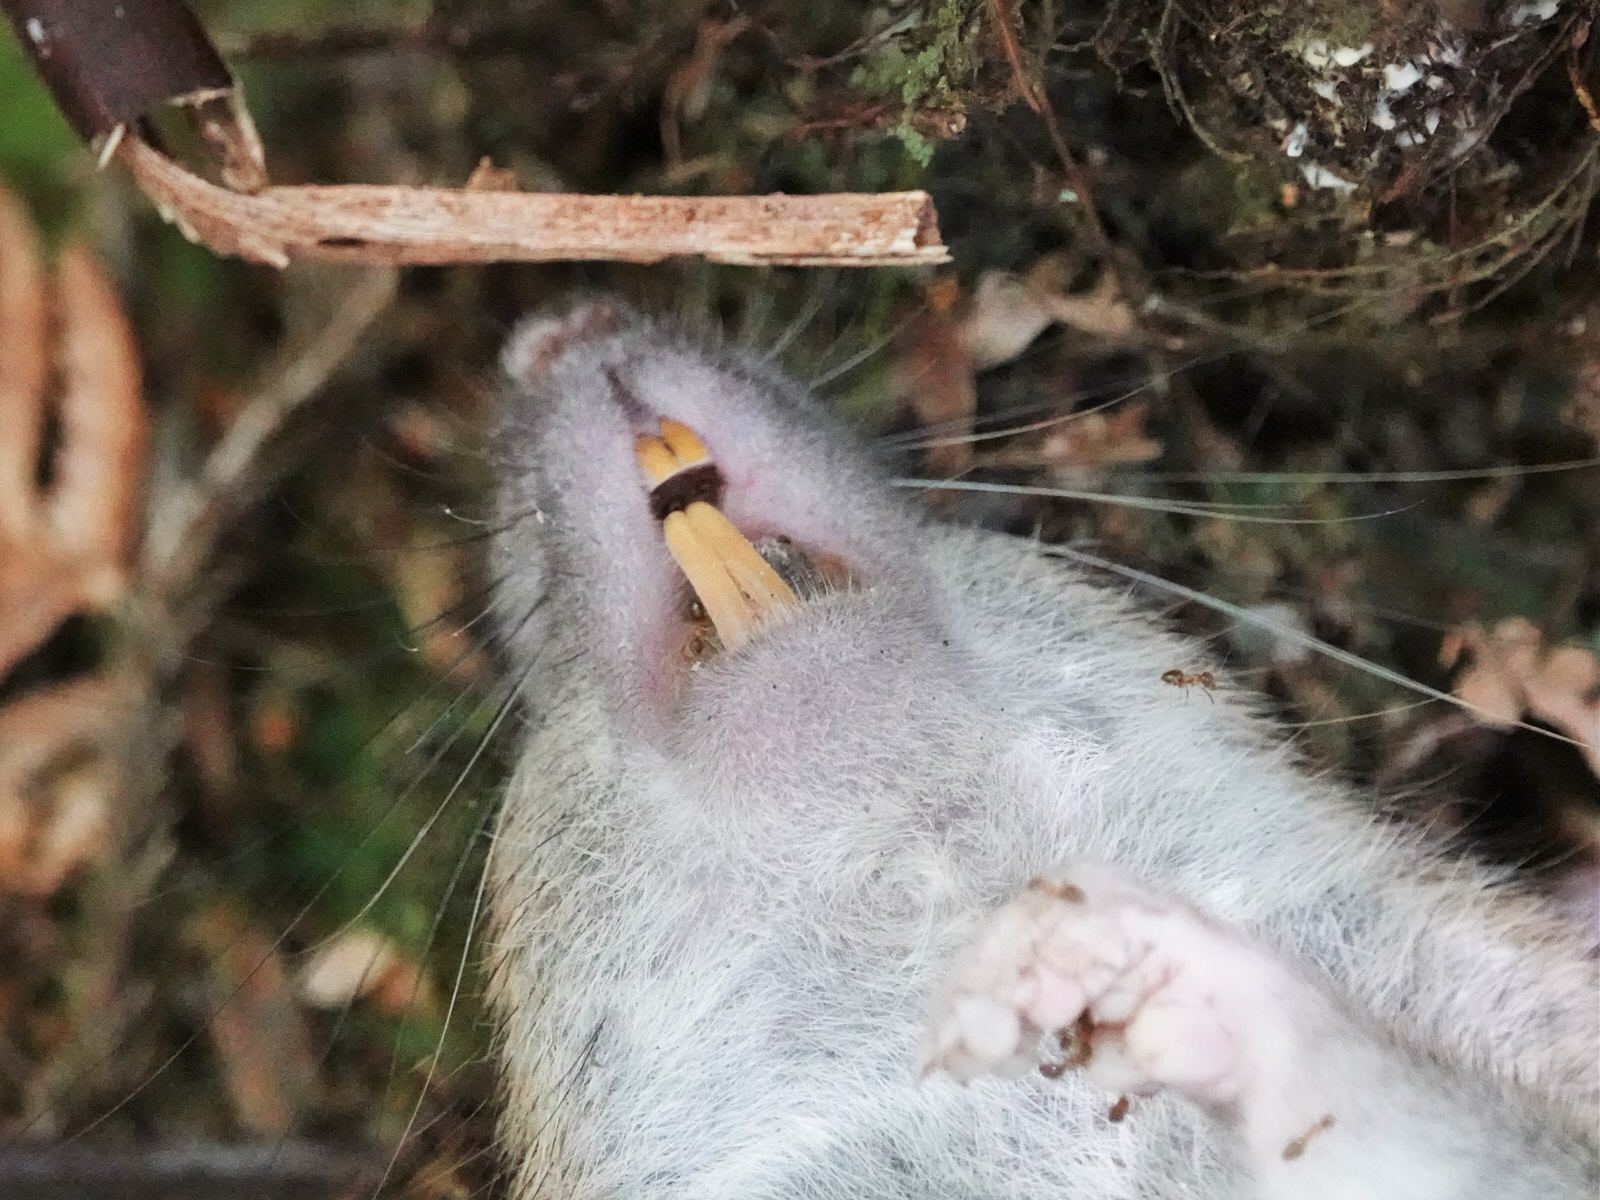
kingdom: Animalia
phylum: Chordata
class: Mammalia
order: Rodentia
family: Muridae
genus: Rattus
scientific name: Rattus norvegicus
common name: Brown rat
